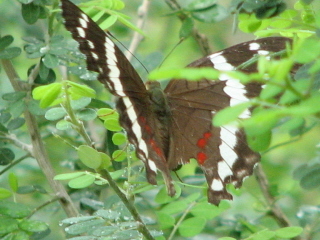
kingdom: Animalia
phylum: Arthropoda
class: Insecta
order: Lepidoptera
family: Nymphalidae
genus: Anartia
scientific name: Anartia fatima
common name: Banded peacock
